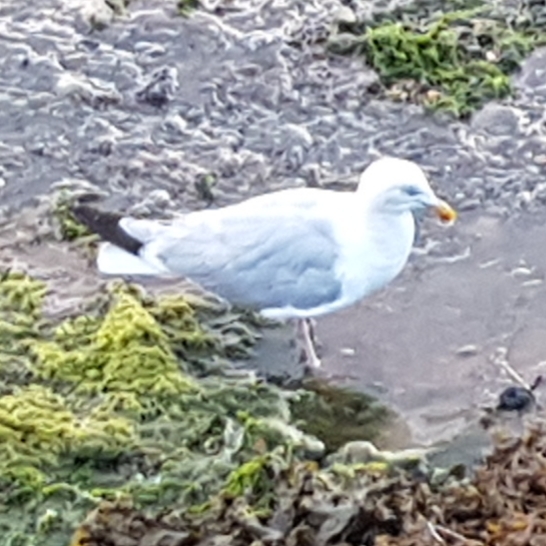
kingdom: Animalia
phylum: Chordata
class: Aves
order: Charadriiformes
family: Laridae
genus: Larus
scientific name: Larus argentatus
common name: Herring gull
